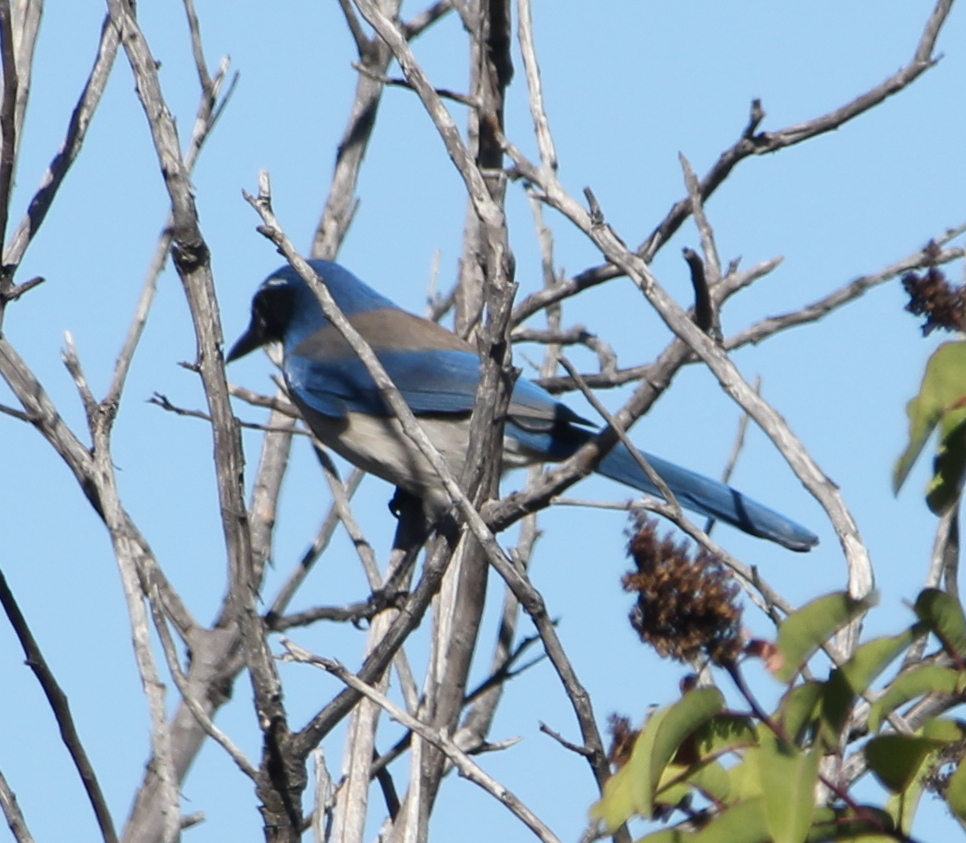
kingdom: Animalia
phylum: Chordata
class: Aves
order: Passeriformes
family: Corvidae
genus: Aphelocoma
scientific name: Aphelocoma californica
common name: California scrub-jay
